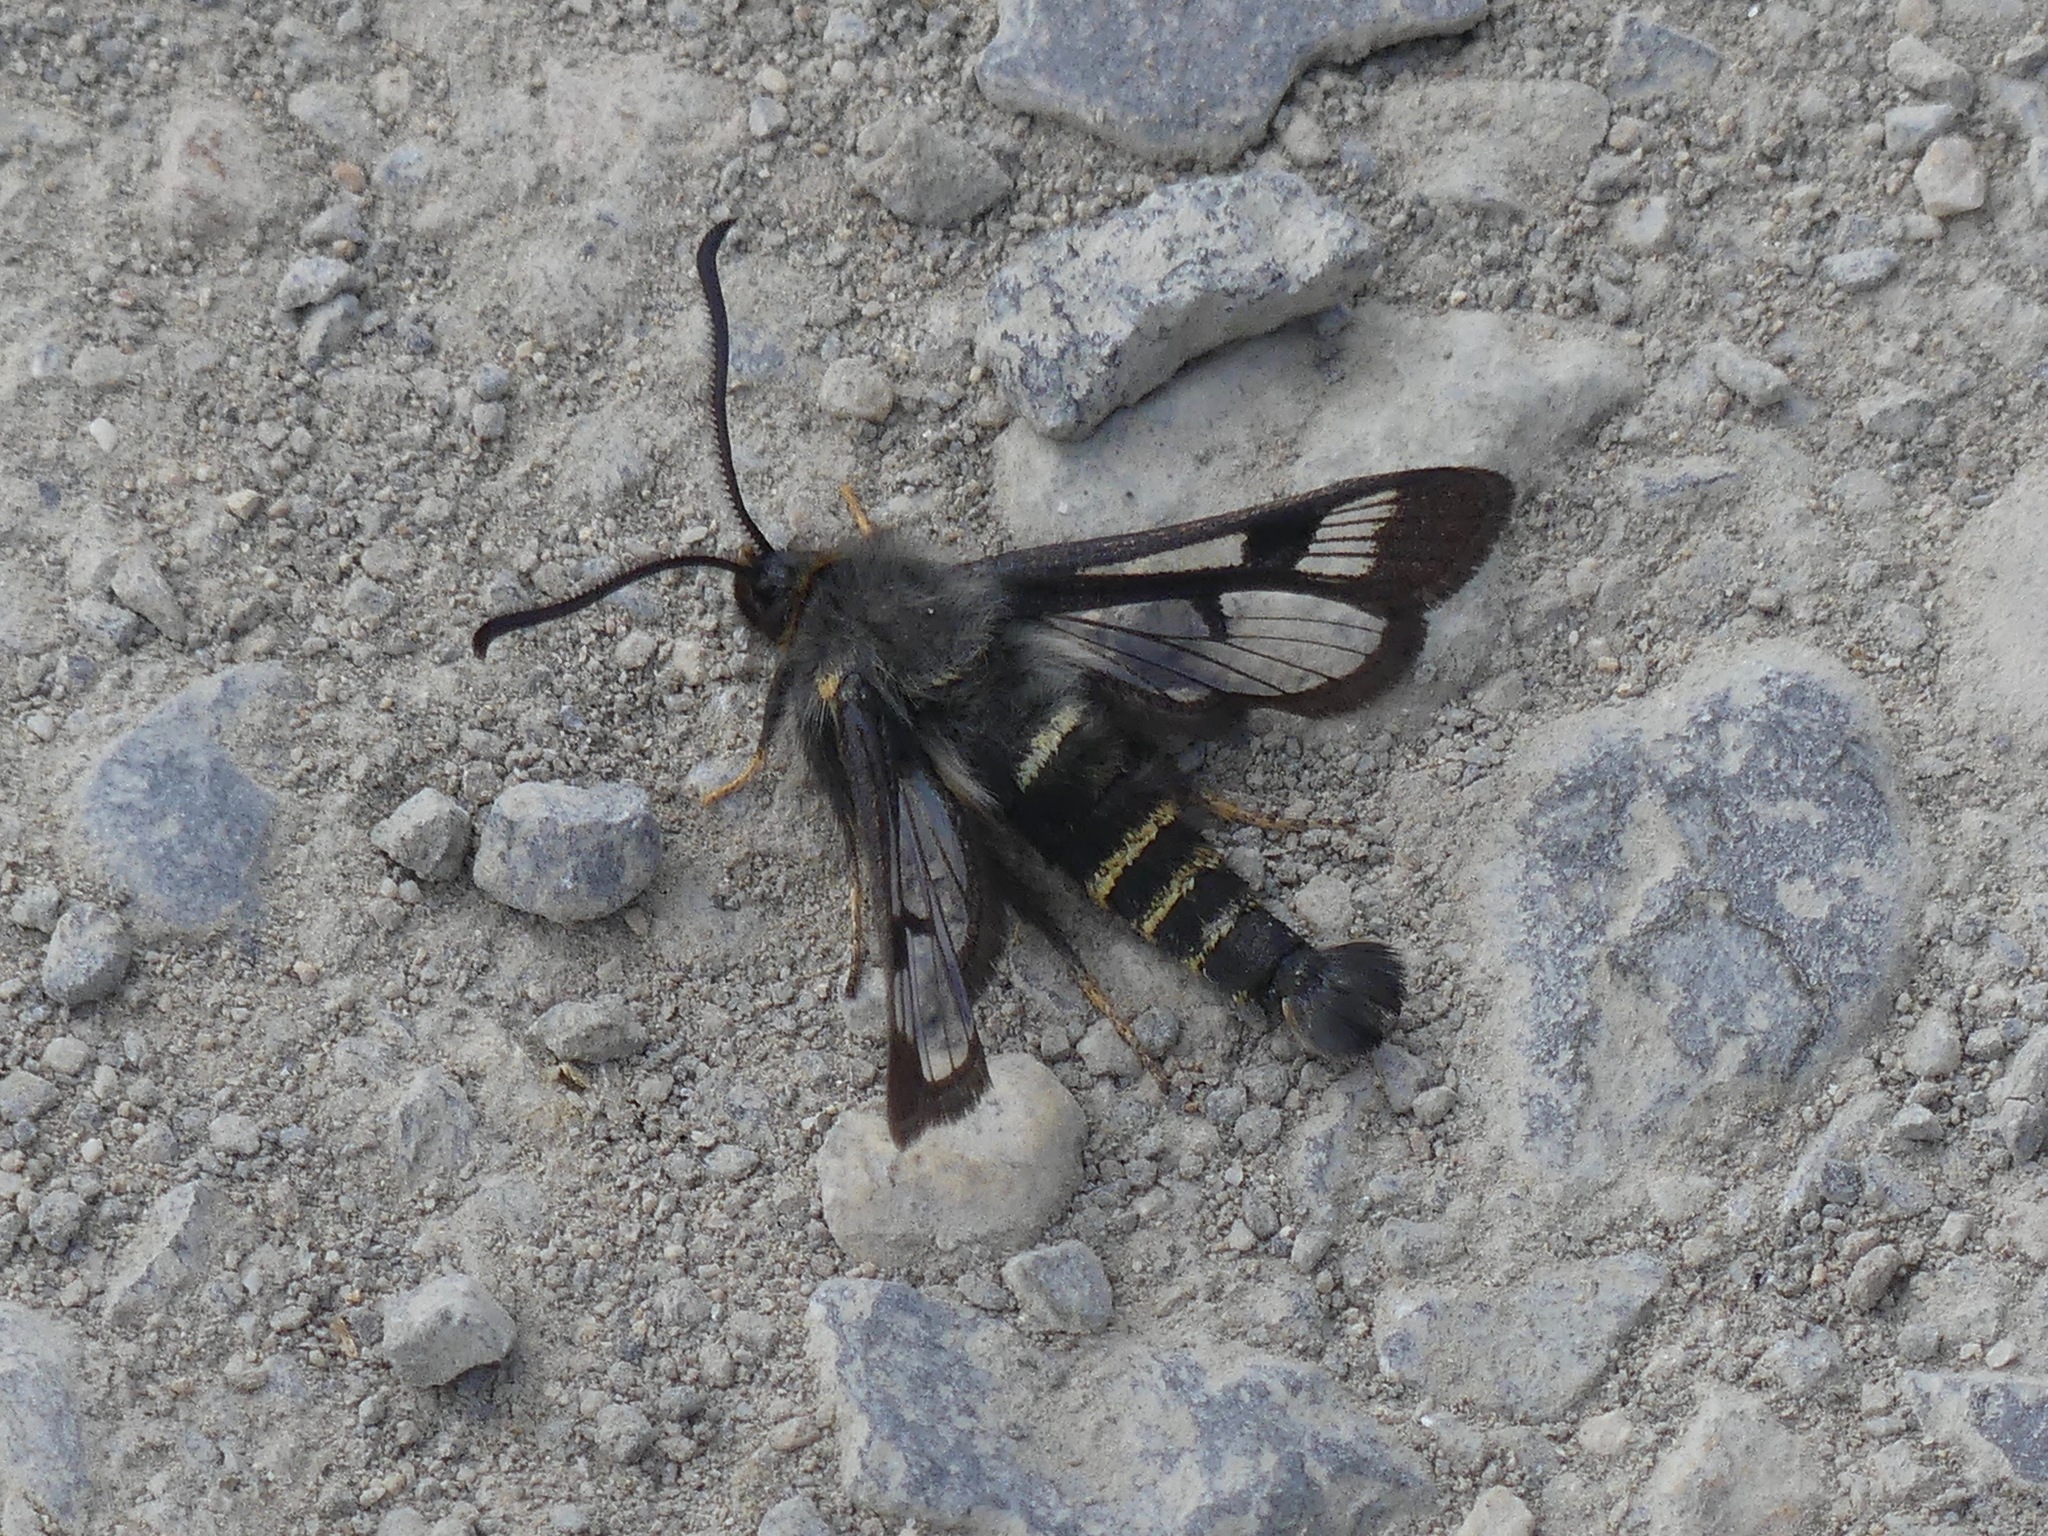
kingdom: Animalia
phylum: Arthropoda
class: Insecta
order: Lepidoptera
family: Sesiidae
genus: Albuna
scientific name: Albuna pyramidalis
